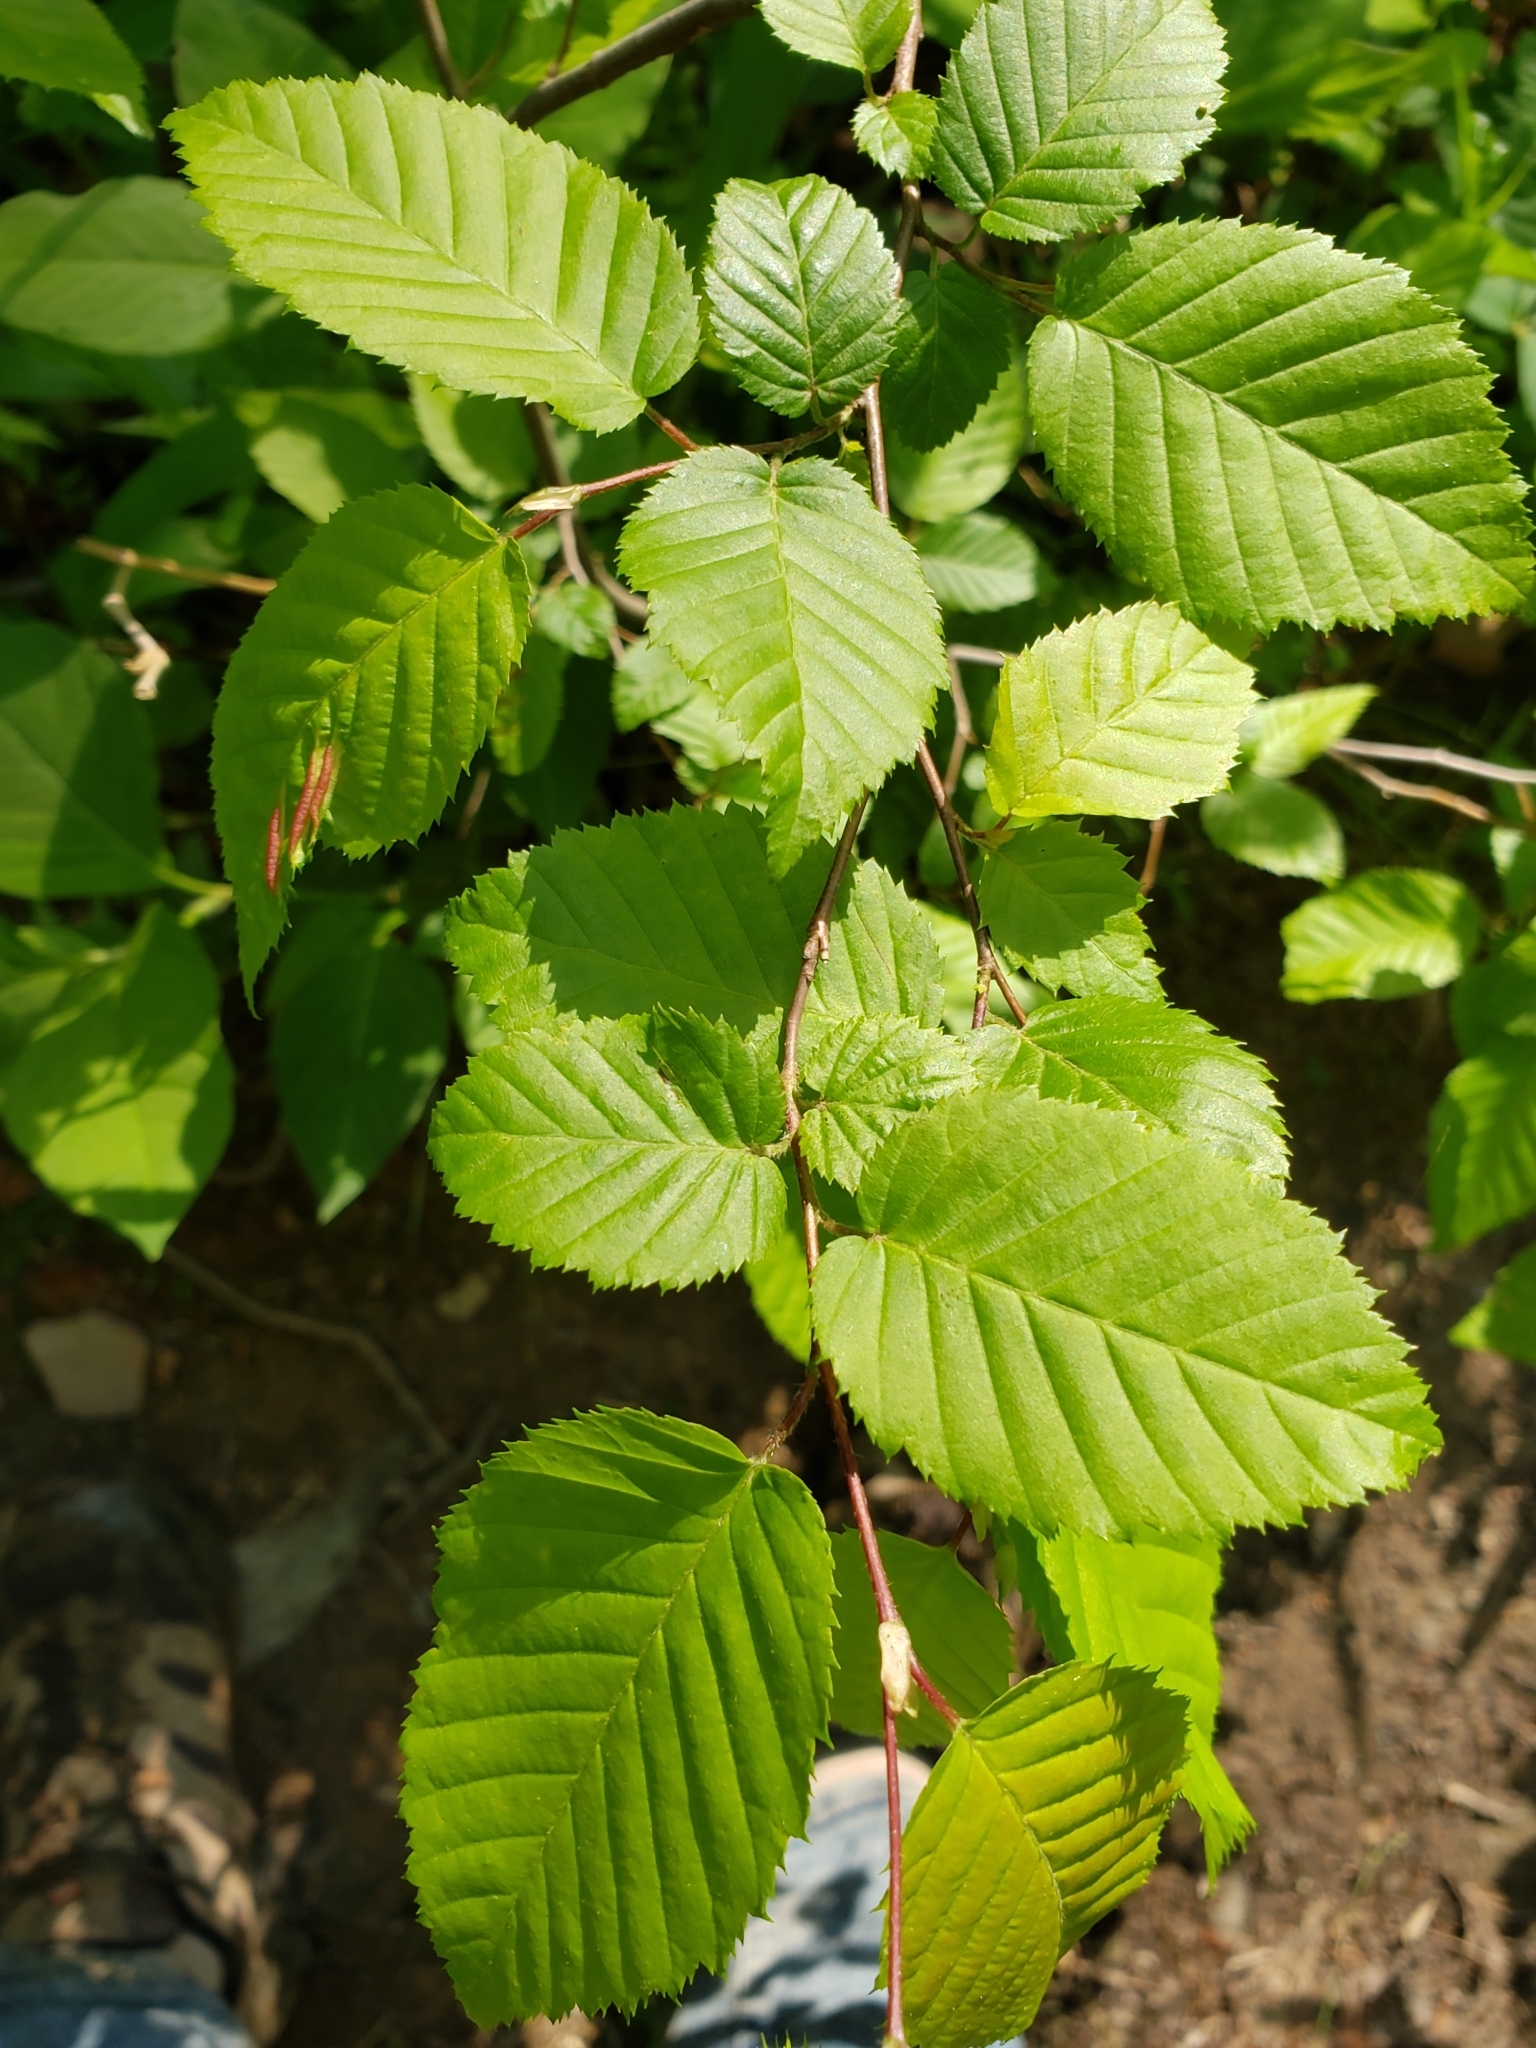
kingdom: Animalia
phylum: Arthropoda
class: Insecta
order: Diptera
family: Cecidomyiidae
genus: Dasineura
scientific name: Dasineura pudibunda
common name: Hornbeam leaf gall midge
